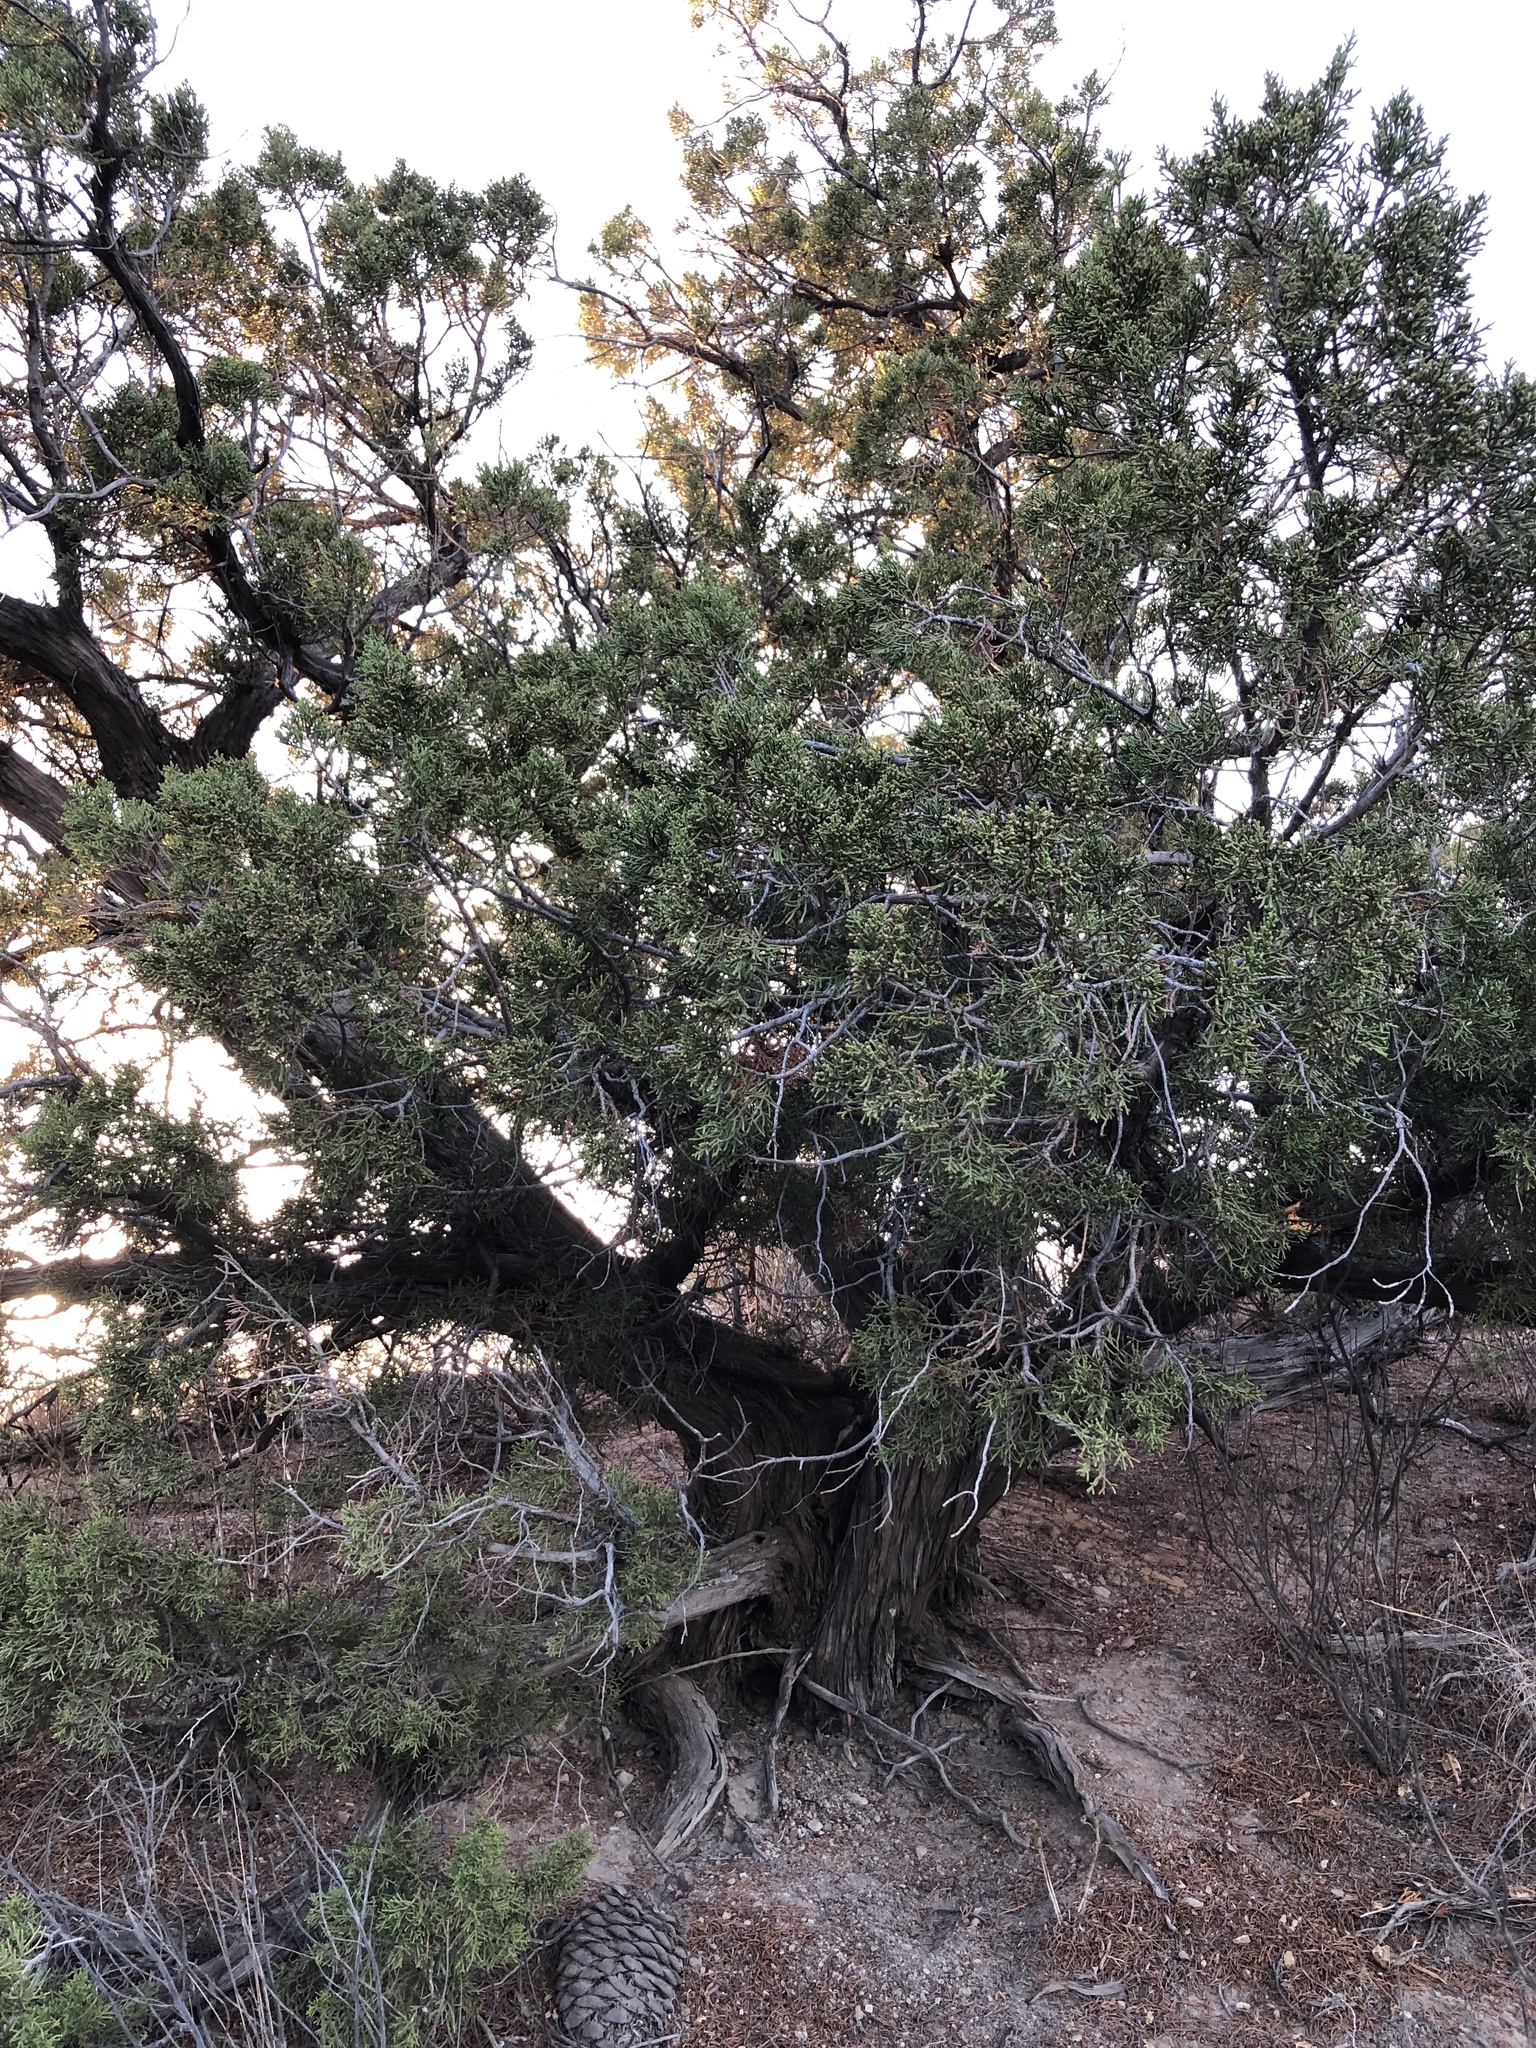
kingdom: Plantae
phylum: Tracheophyta
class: Pinopsida
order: Pinales
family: Cupressaceae
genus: Juniperus
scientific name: Juniperus californica
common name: California juniper
